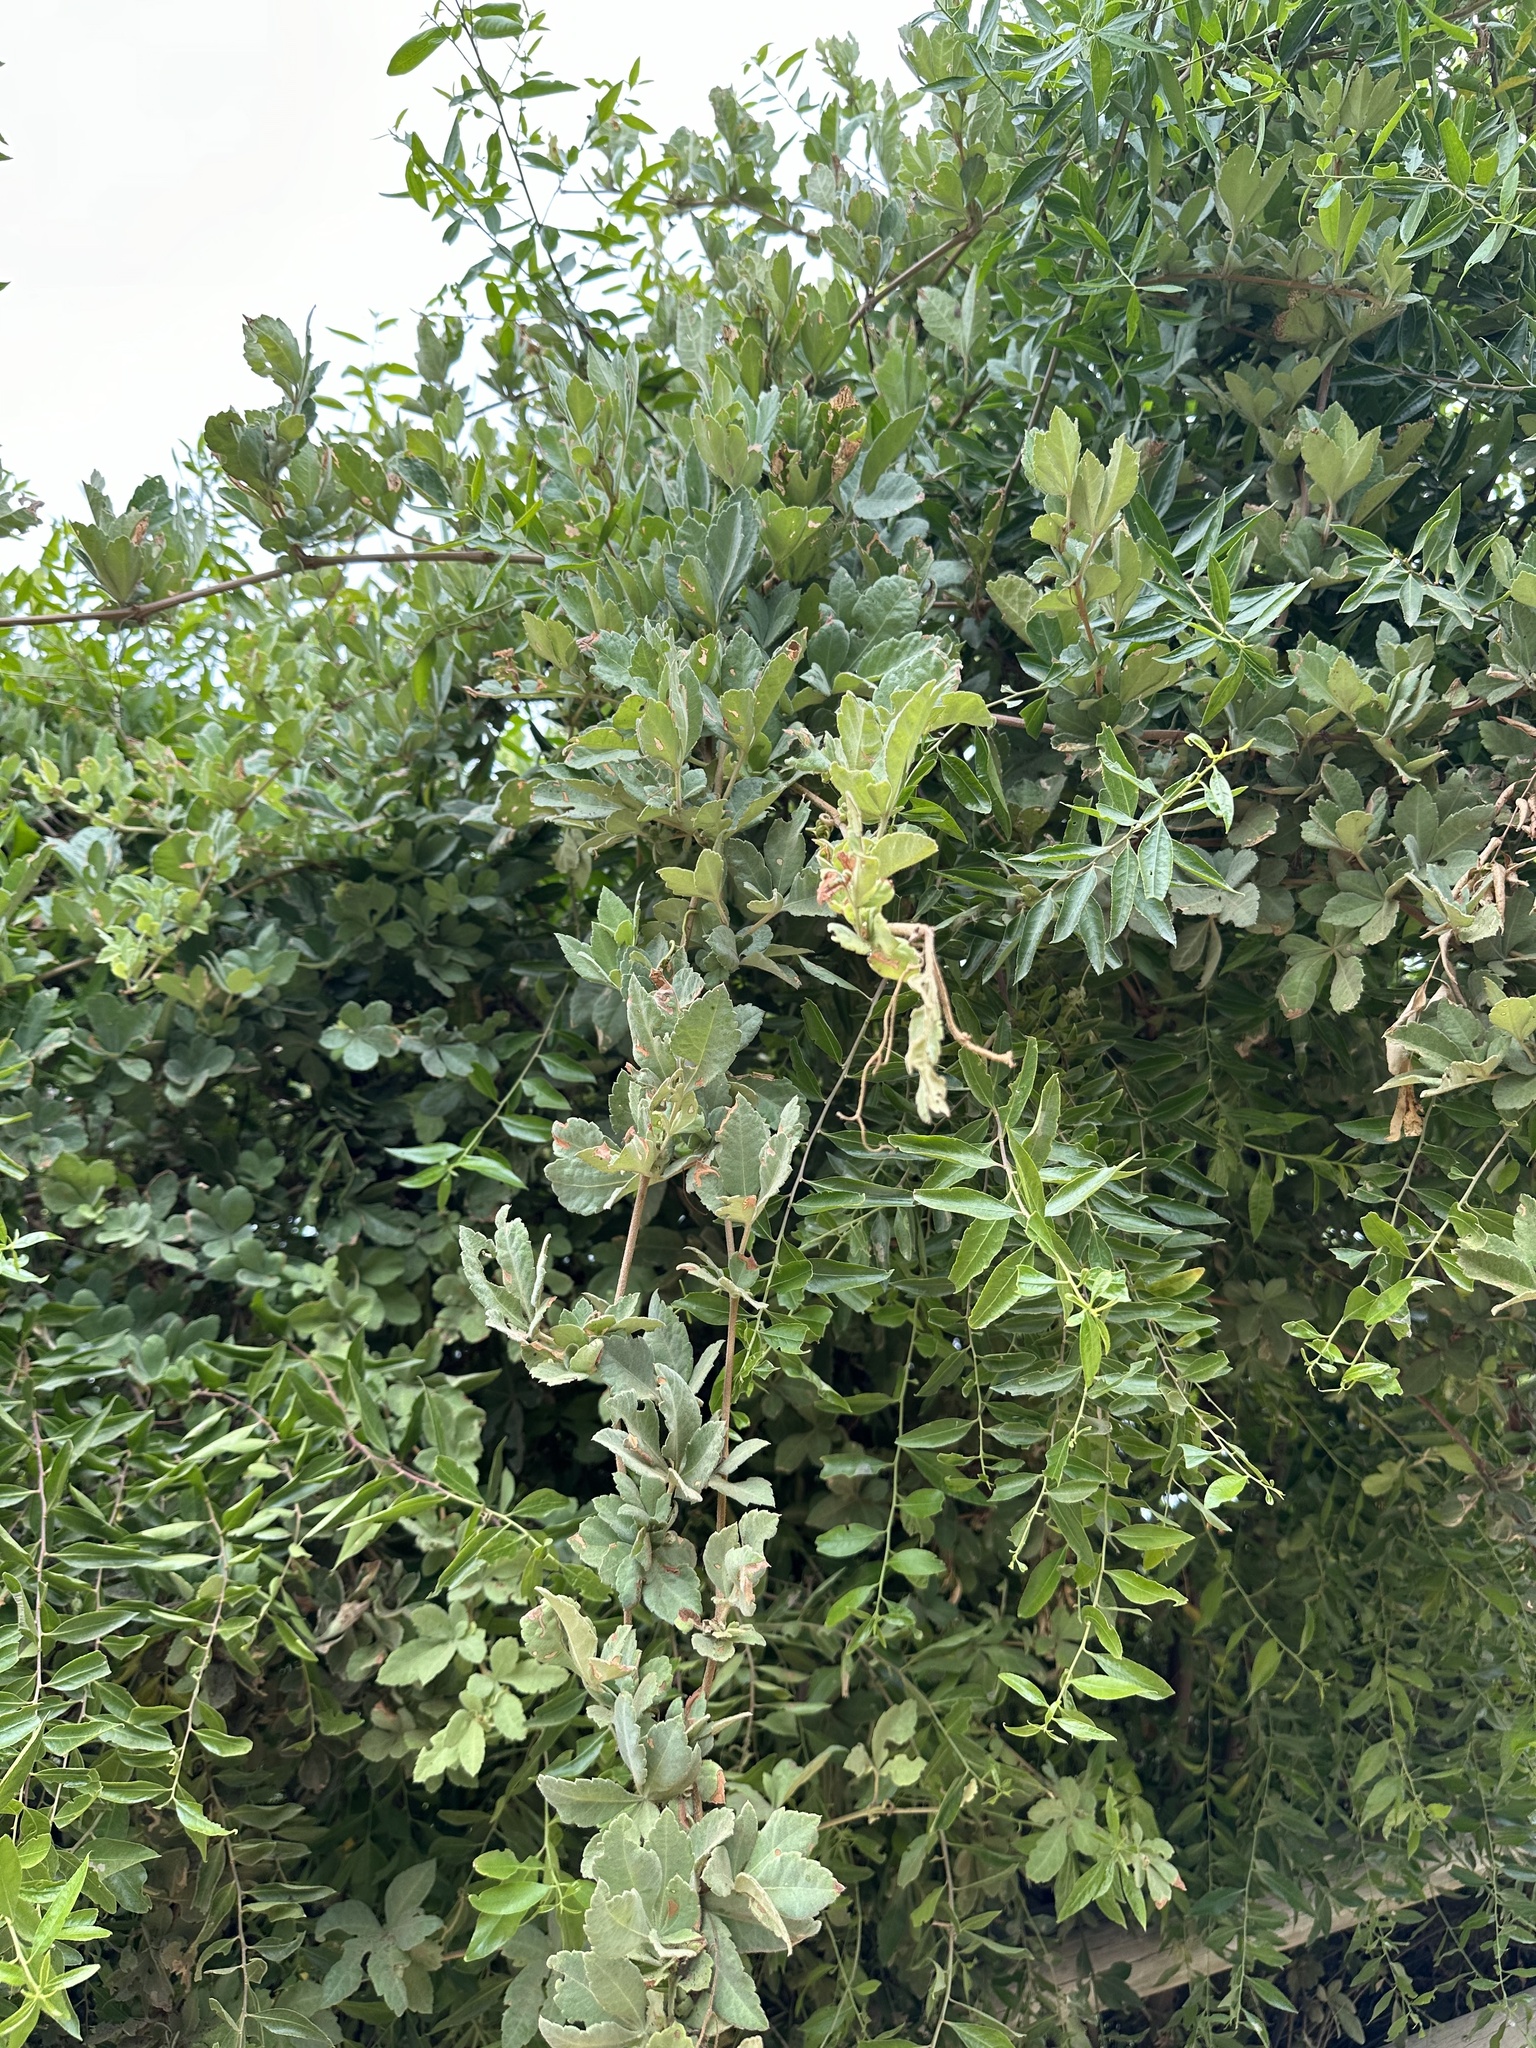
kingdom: Plantae
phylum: Tracheophyta
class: Magnoliopsida
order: Vitales
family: Vitaceae
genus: Clematicissus
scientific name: Clematicissus striata
